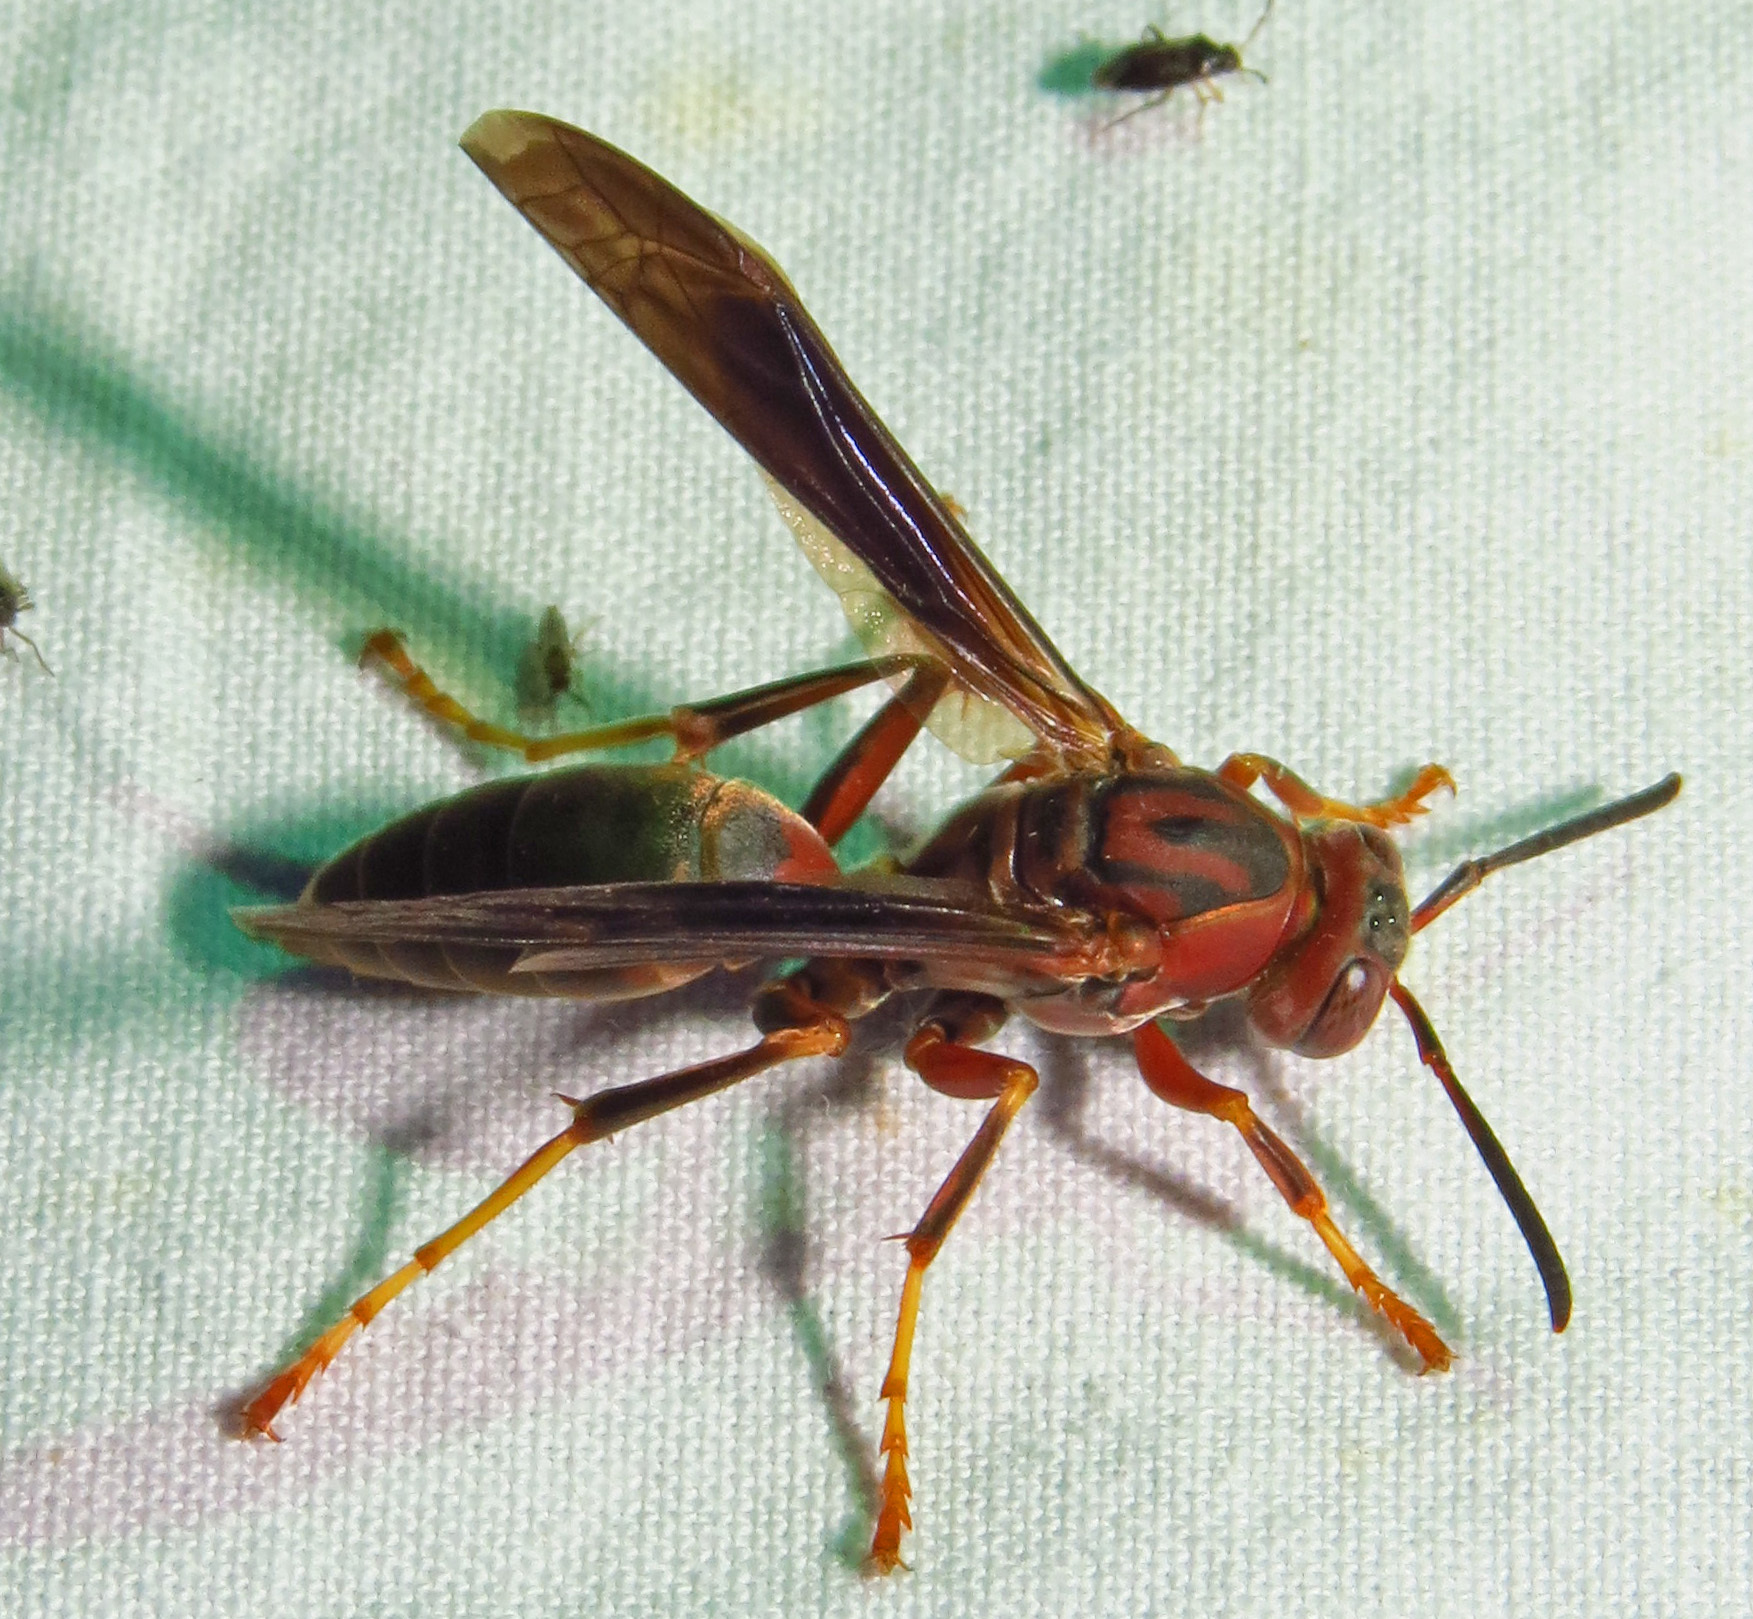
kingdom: Animalia
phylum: Arthropoda
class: Insecta
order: Hymenoptera
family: Eumenidae
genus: Polistes
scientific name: Polistes metricus
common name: Metric paper wasp
